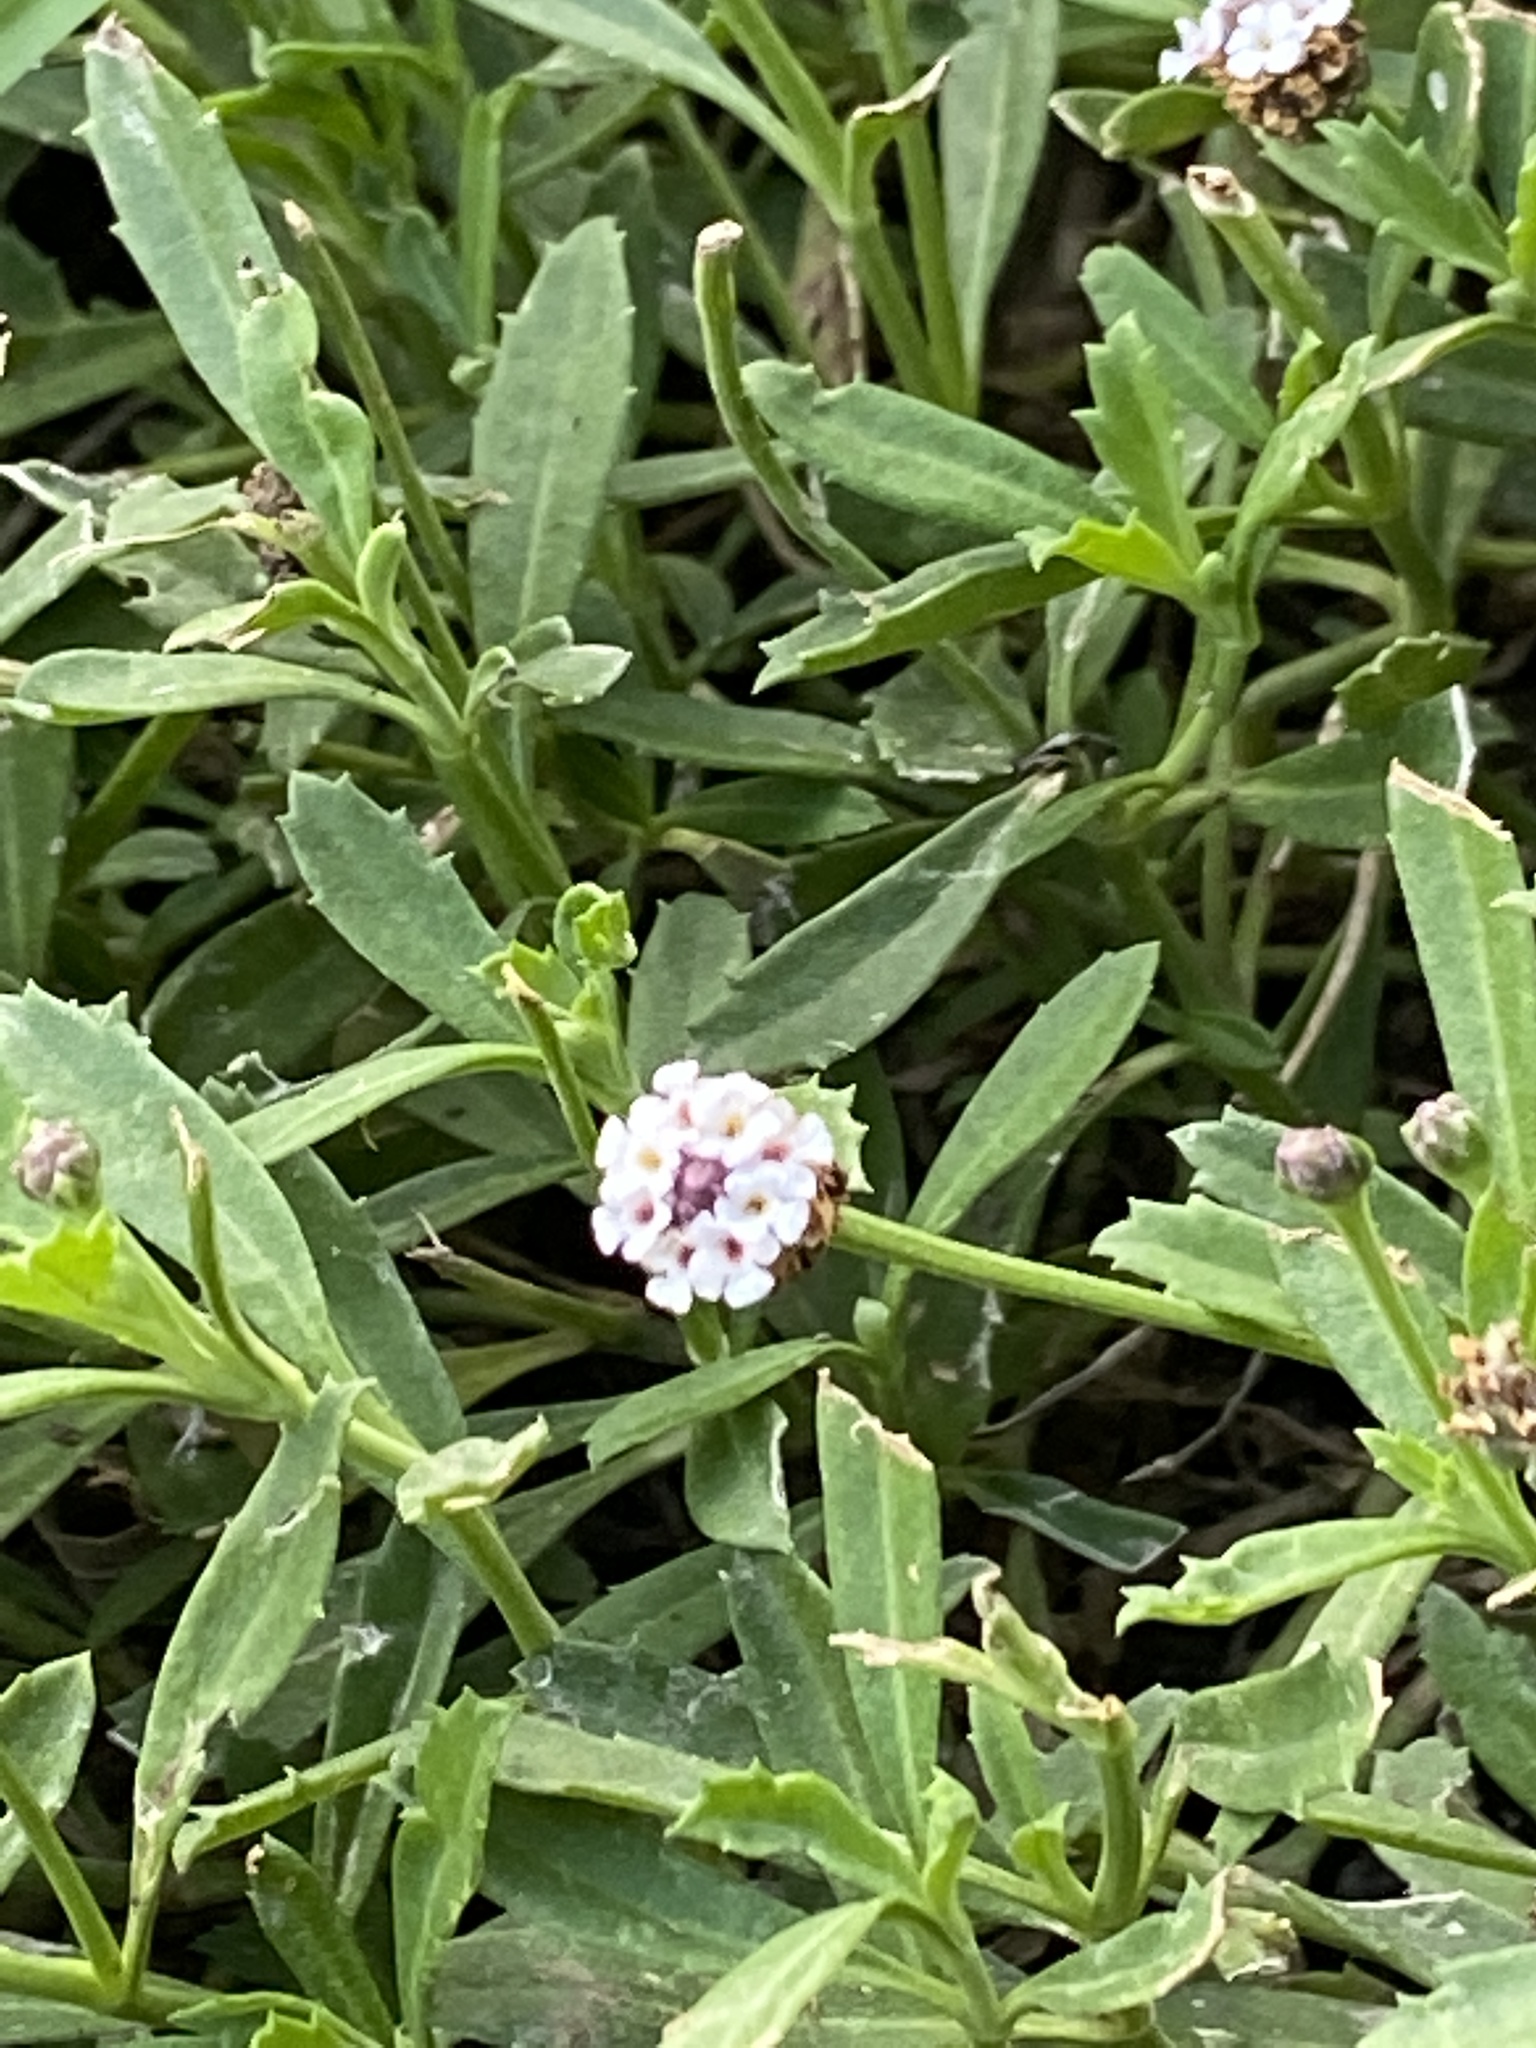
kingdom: Plantae
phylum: Tracheophyta
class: Magnoliopsida
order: Lamiales
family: Verbenaceae
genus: Phyla
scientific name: Phyla nodiflora
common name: Frogfruit
